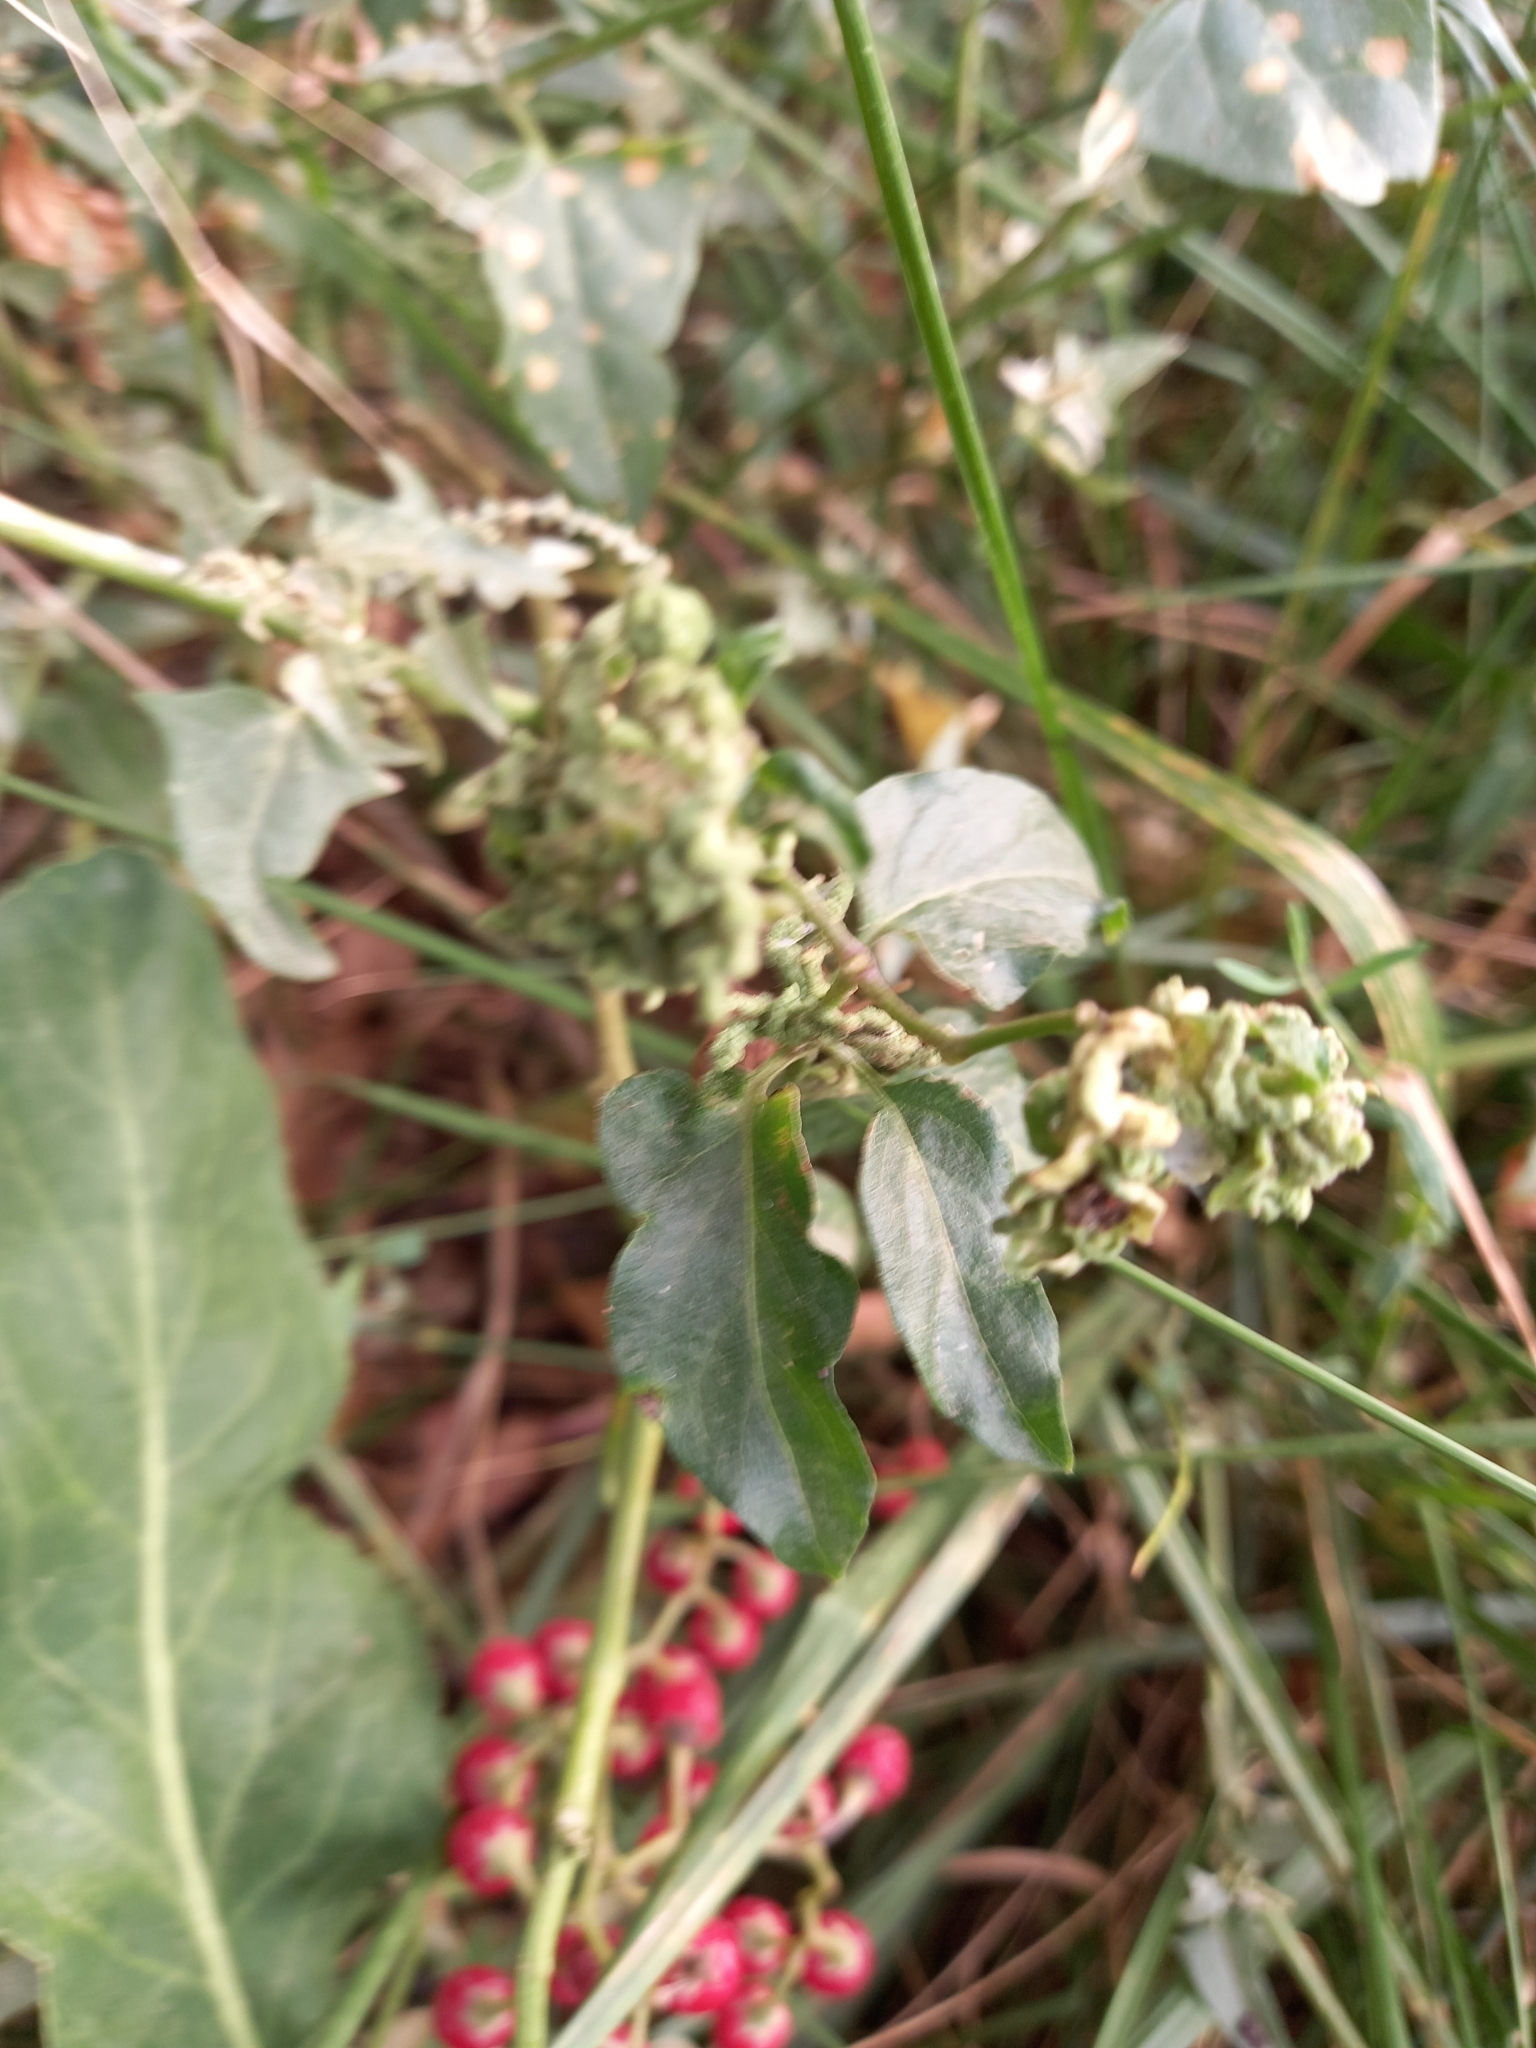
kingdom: Plantae
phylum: Tracheophyta
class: Magnoliopsida
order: Solanales
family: Solanaceae
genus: Solanum
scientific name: Solanum dulcamara
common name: Climbing nightshade
